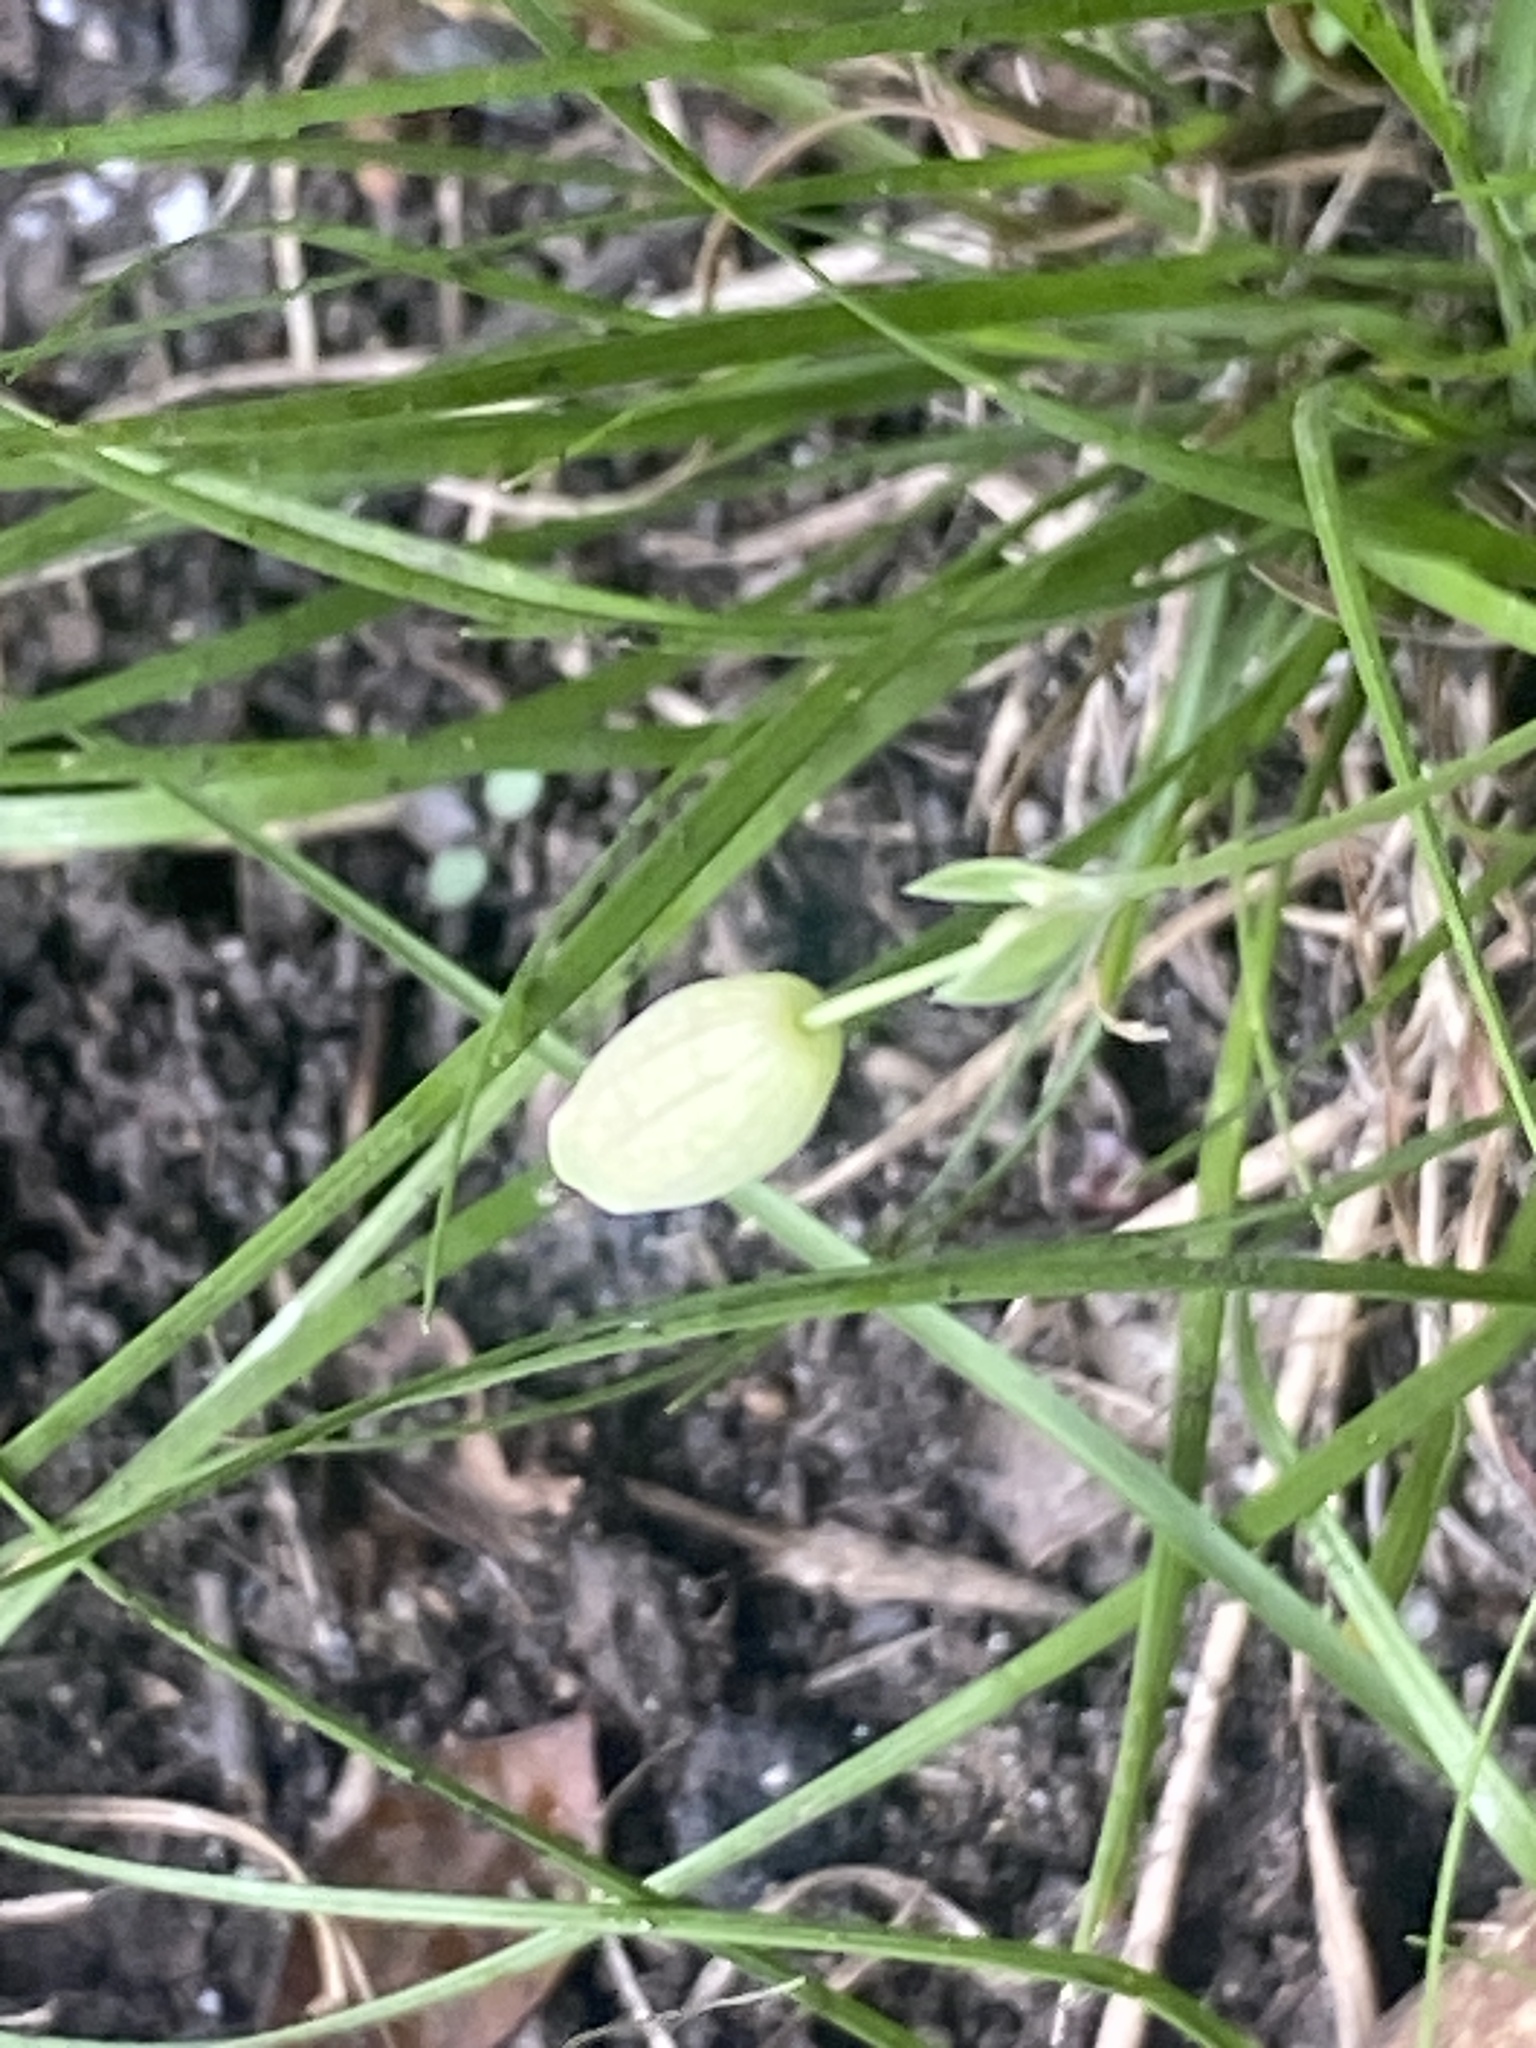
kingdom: Plantae
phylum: Tracheophyta
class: Magnoliopsida
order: Caryophyllales
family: Caryophyllaceae
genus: Silene
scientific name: Silene vulgaris
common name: Bladder campion
